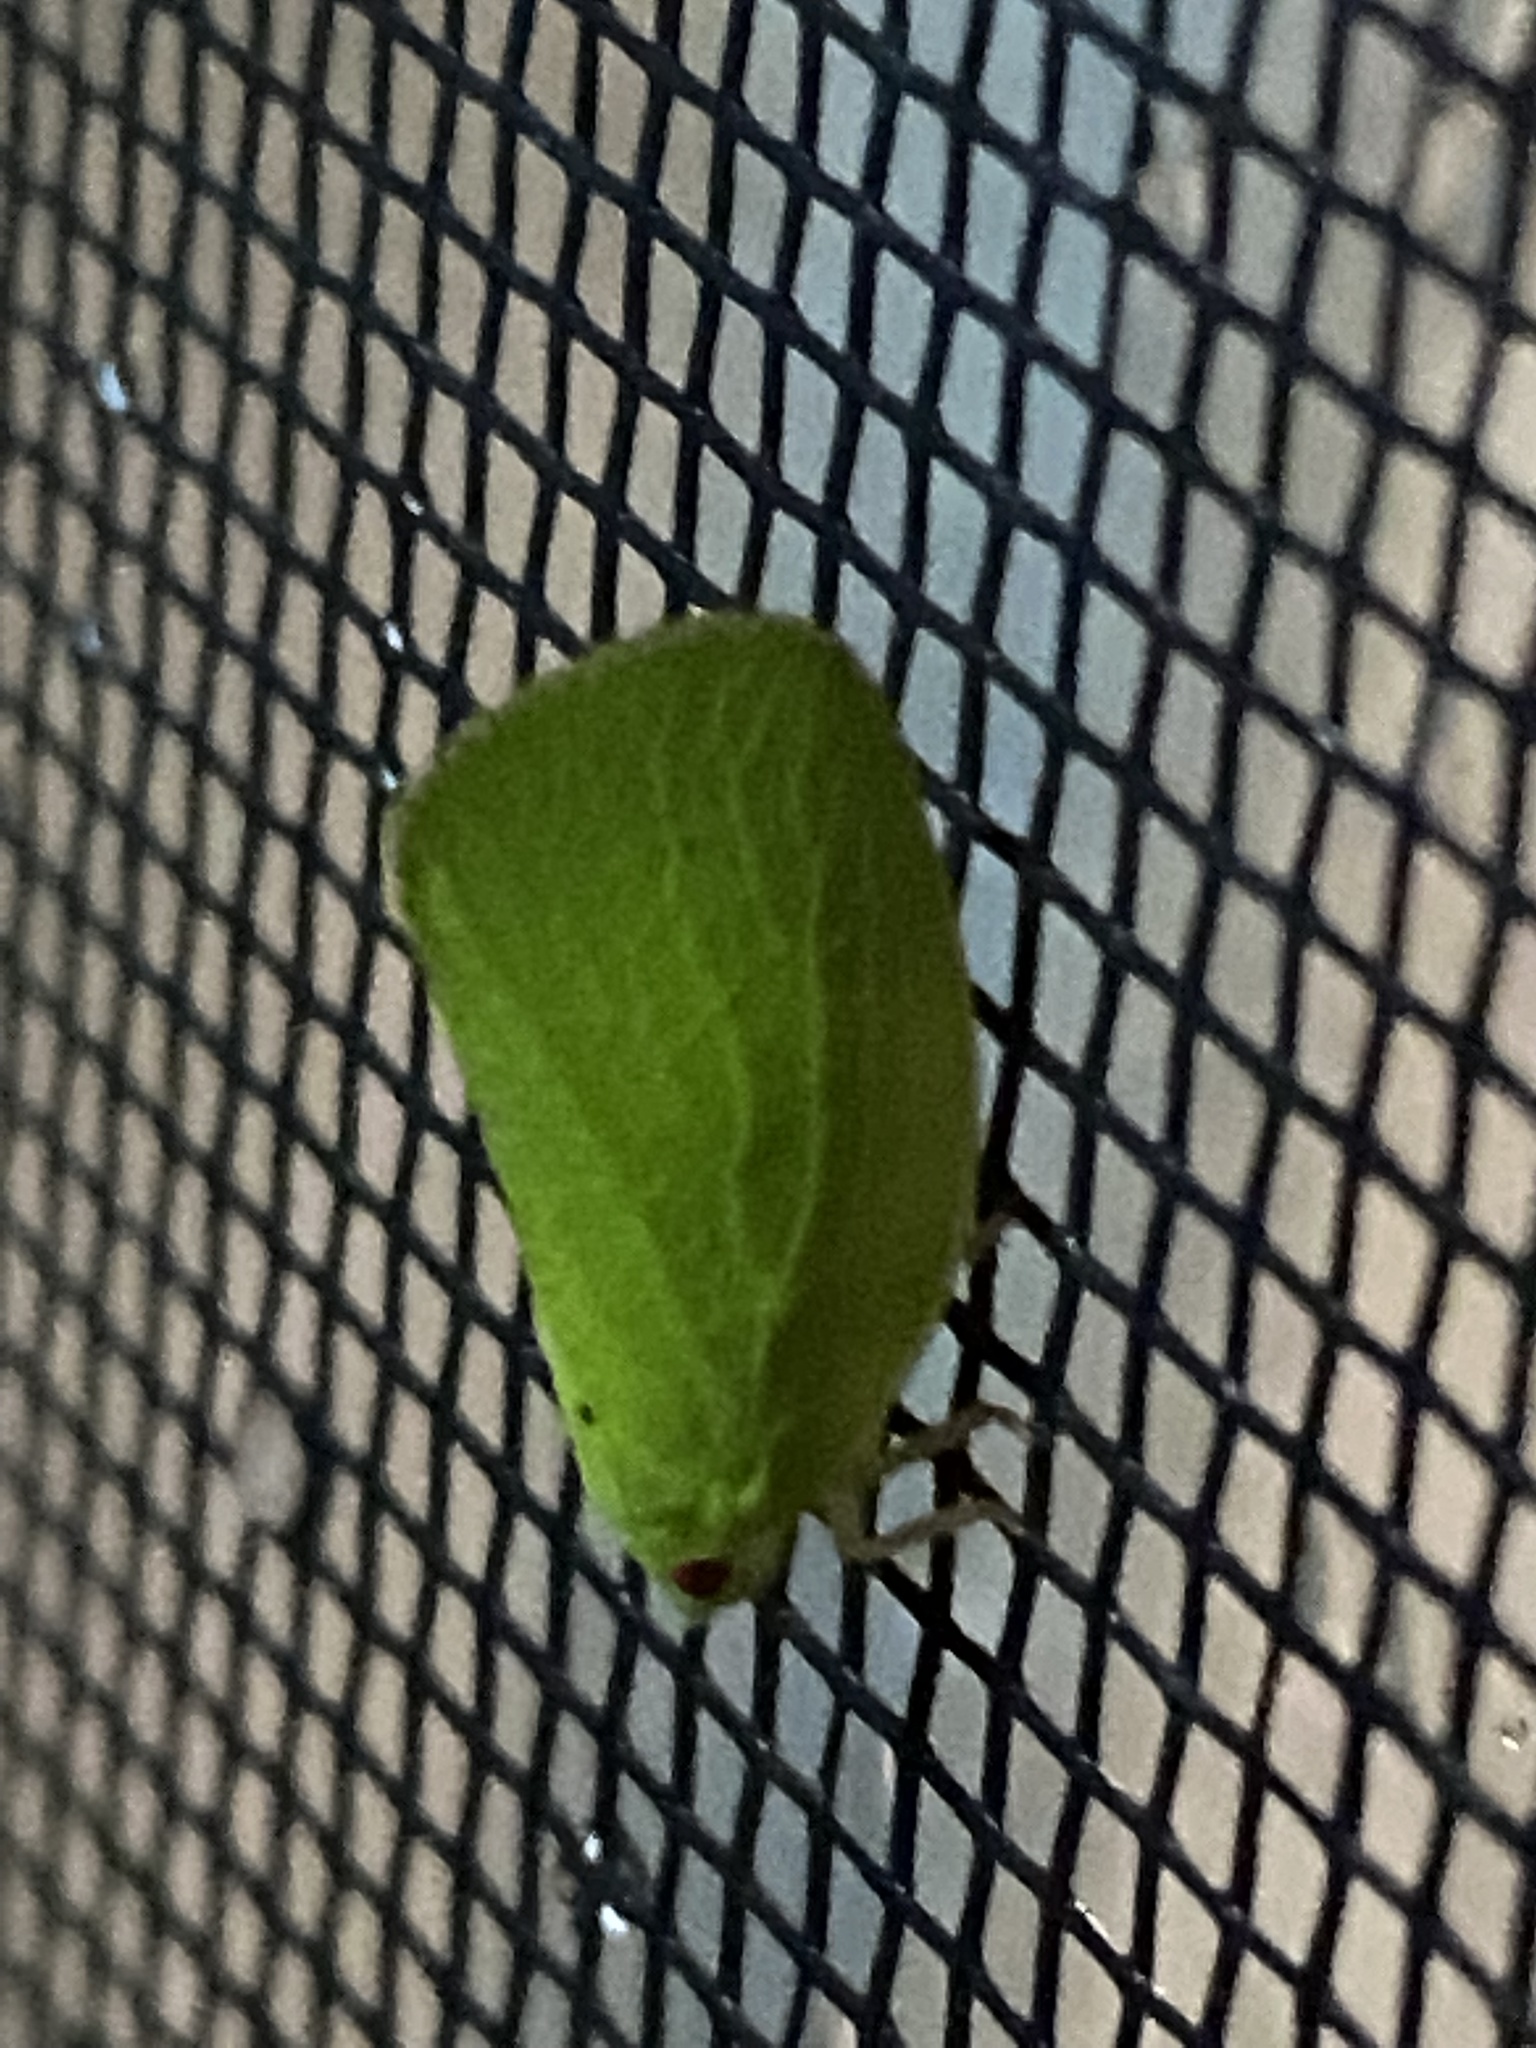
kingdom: Animalia
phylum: Arthropoda
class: Insecta
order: Hemiptera
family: Acanaloniidae
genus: Acanalonia
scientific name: Acanalonia conica
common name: Green cone-headed planthopper
